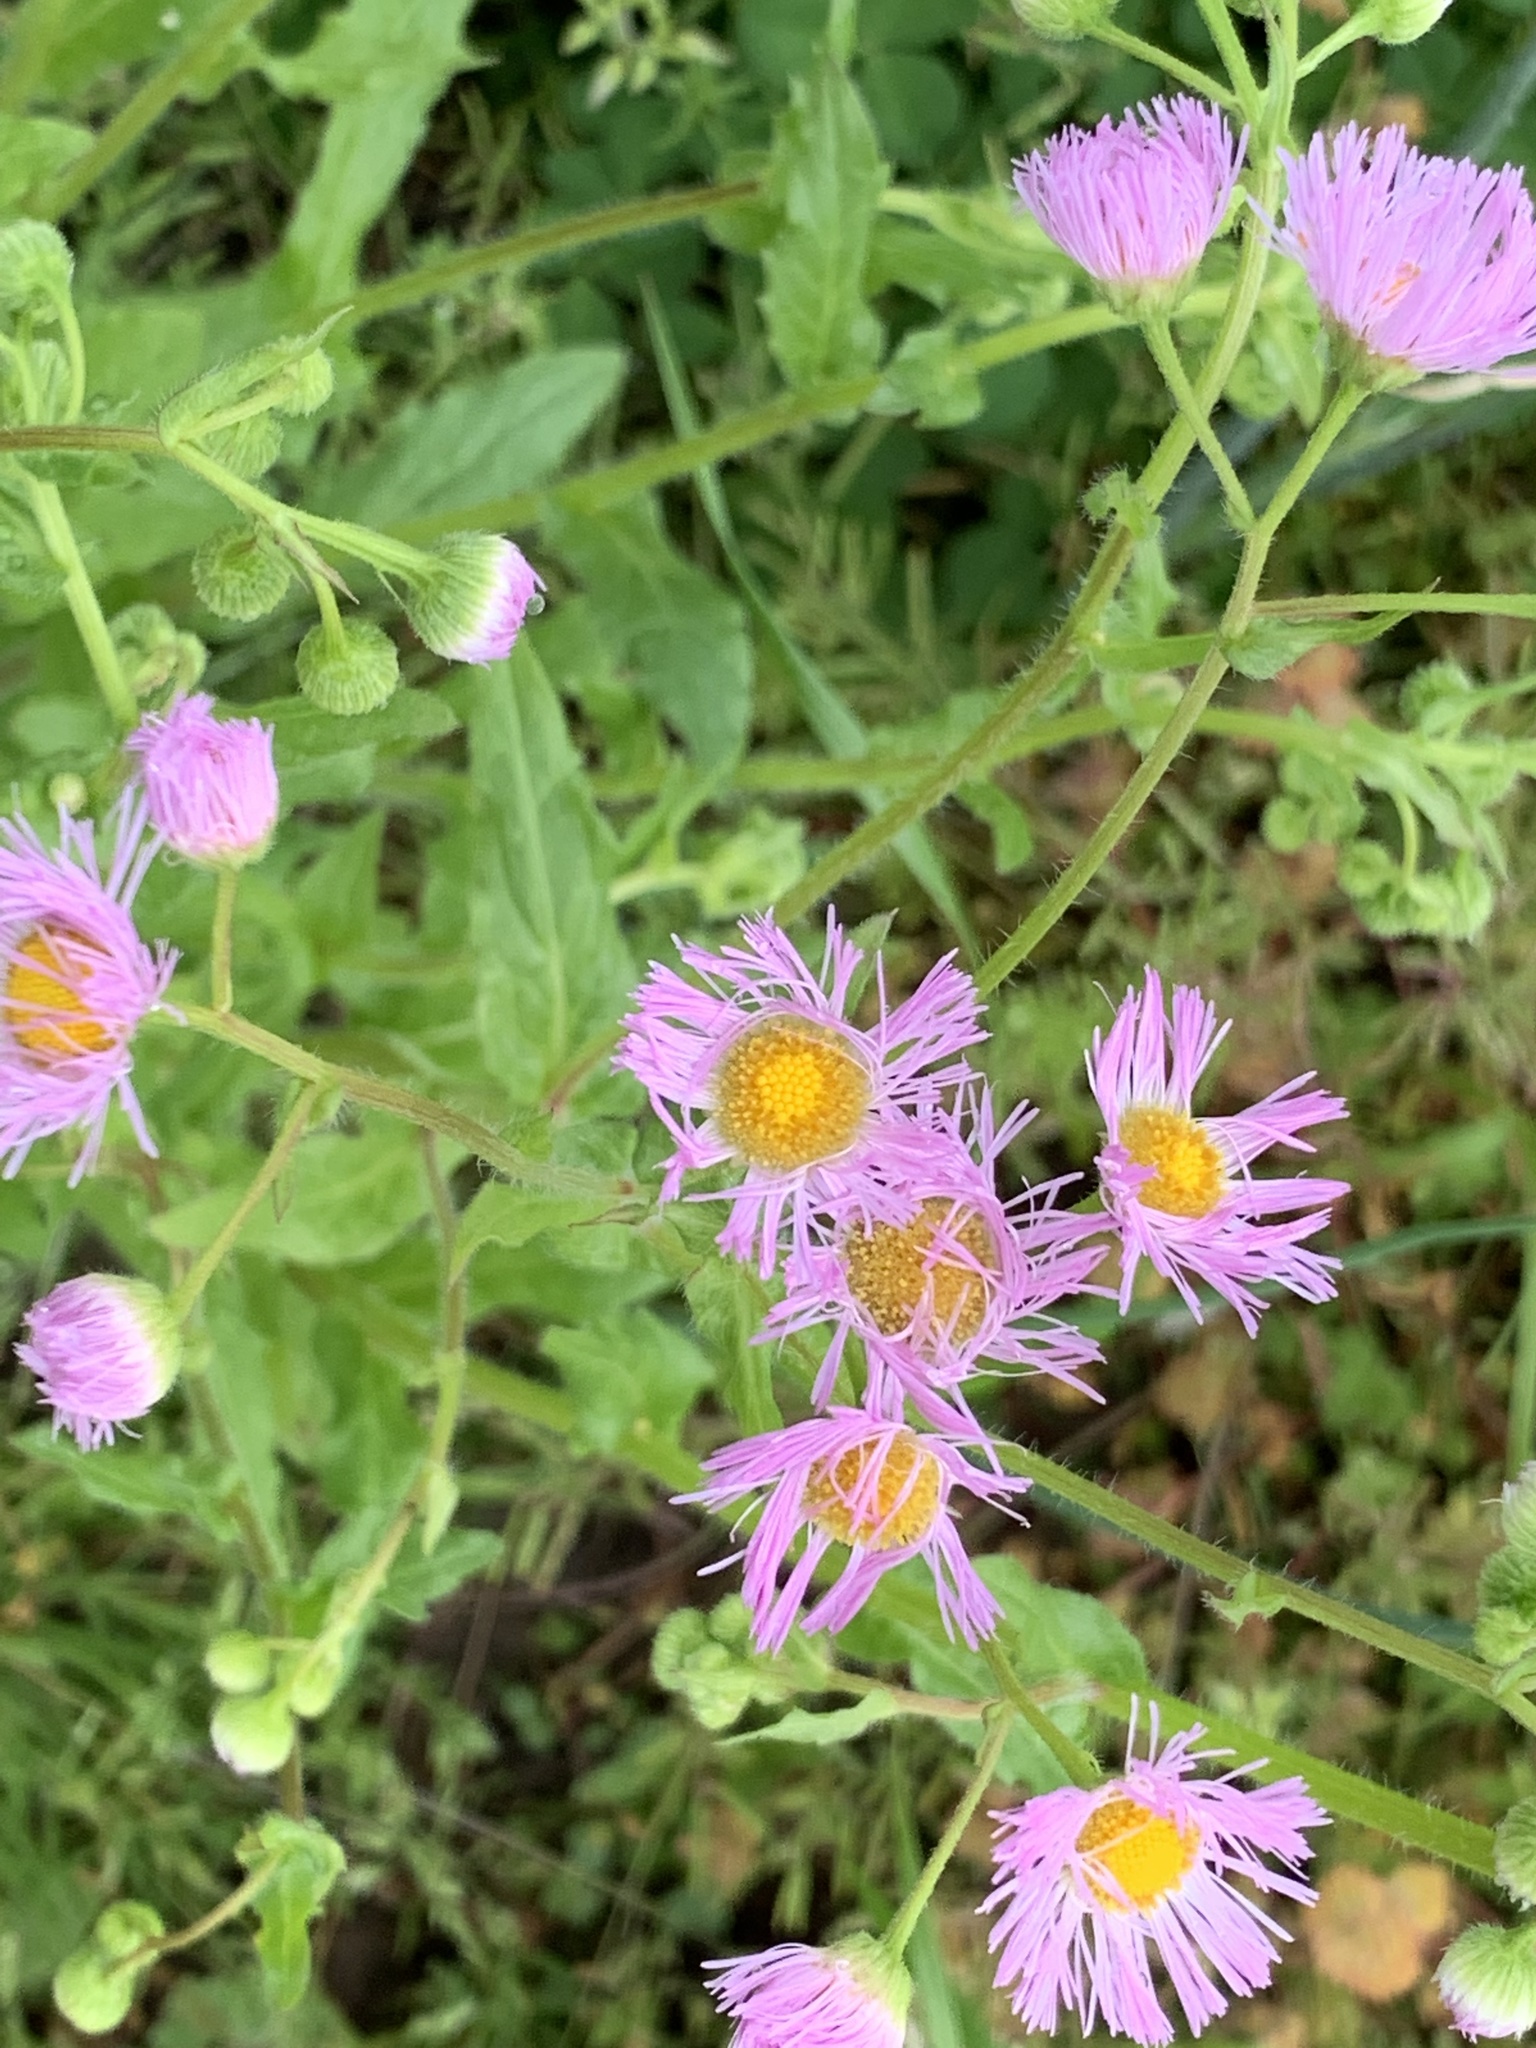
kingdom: Plantae
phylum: Tracheophyta
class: Magnoliopsida
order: Asterales
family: Asteraceae
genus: Erigeron
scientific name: Erigeron philadelphicus
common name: Robin's-plantain
